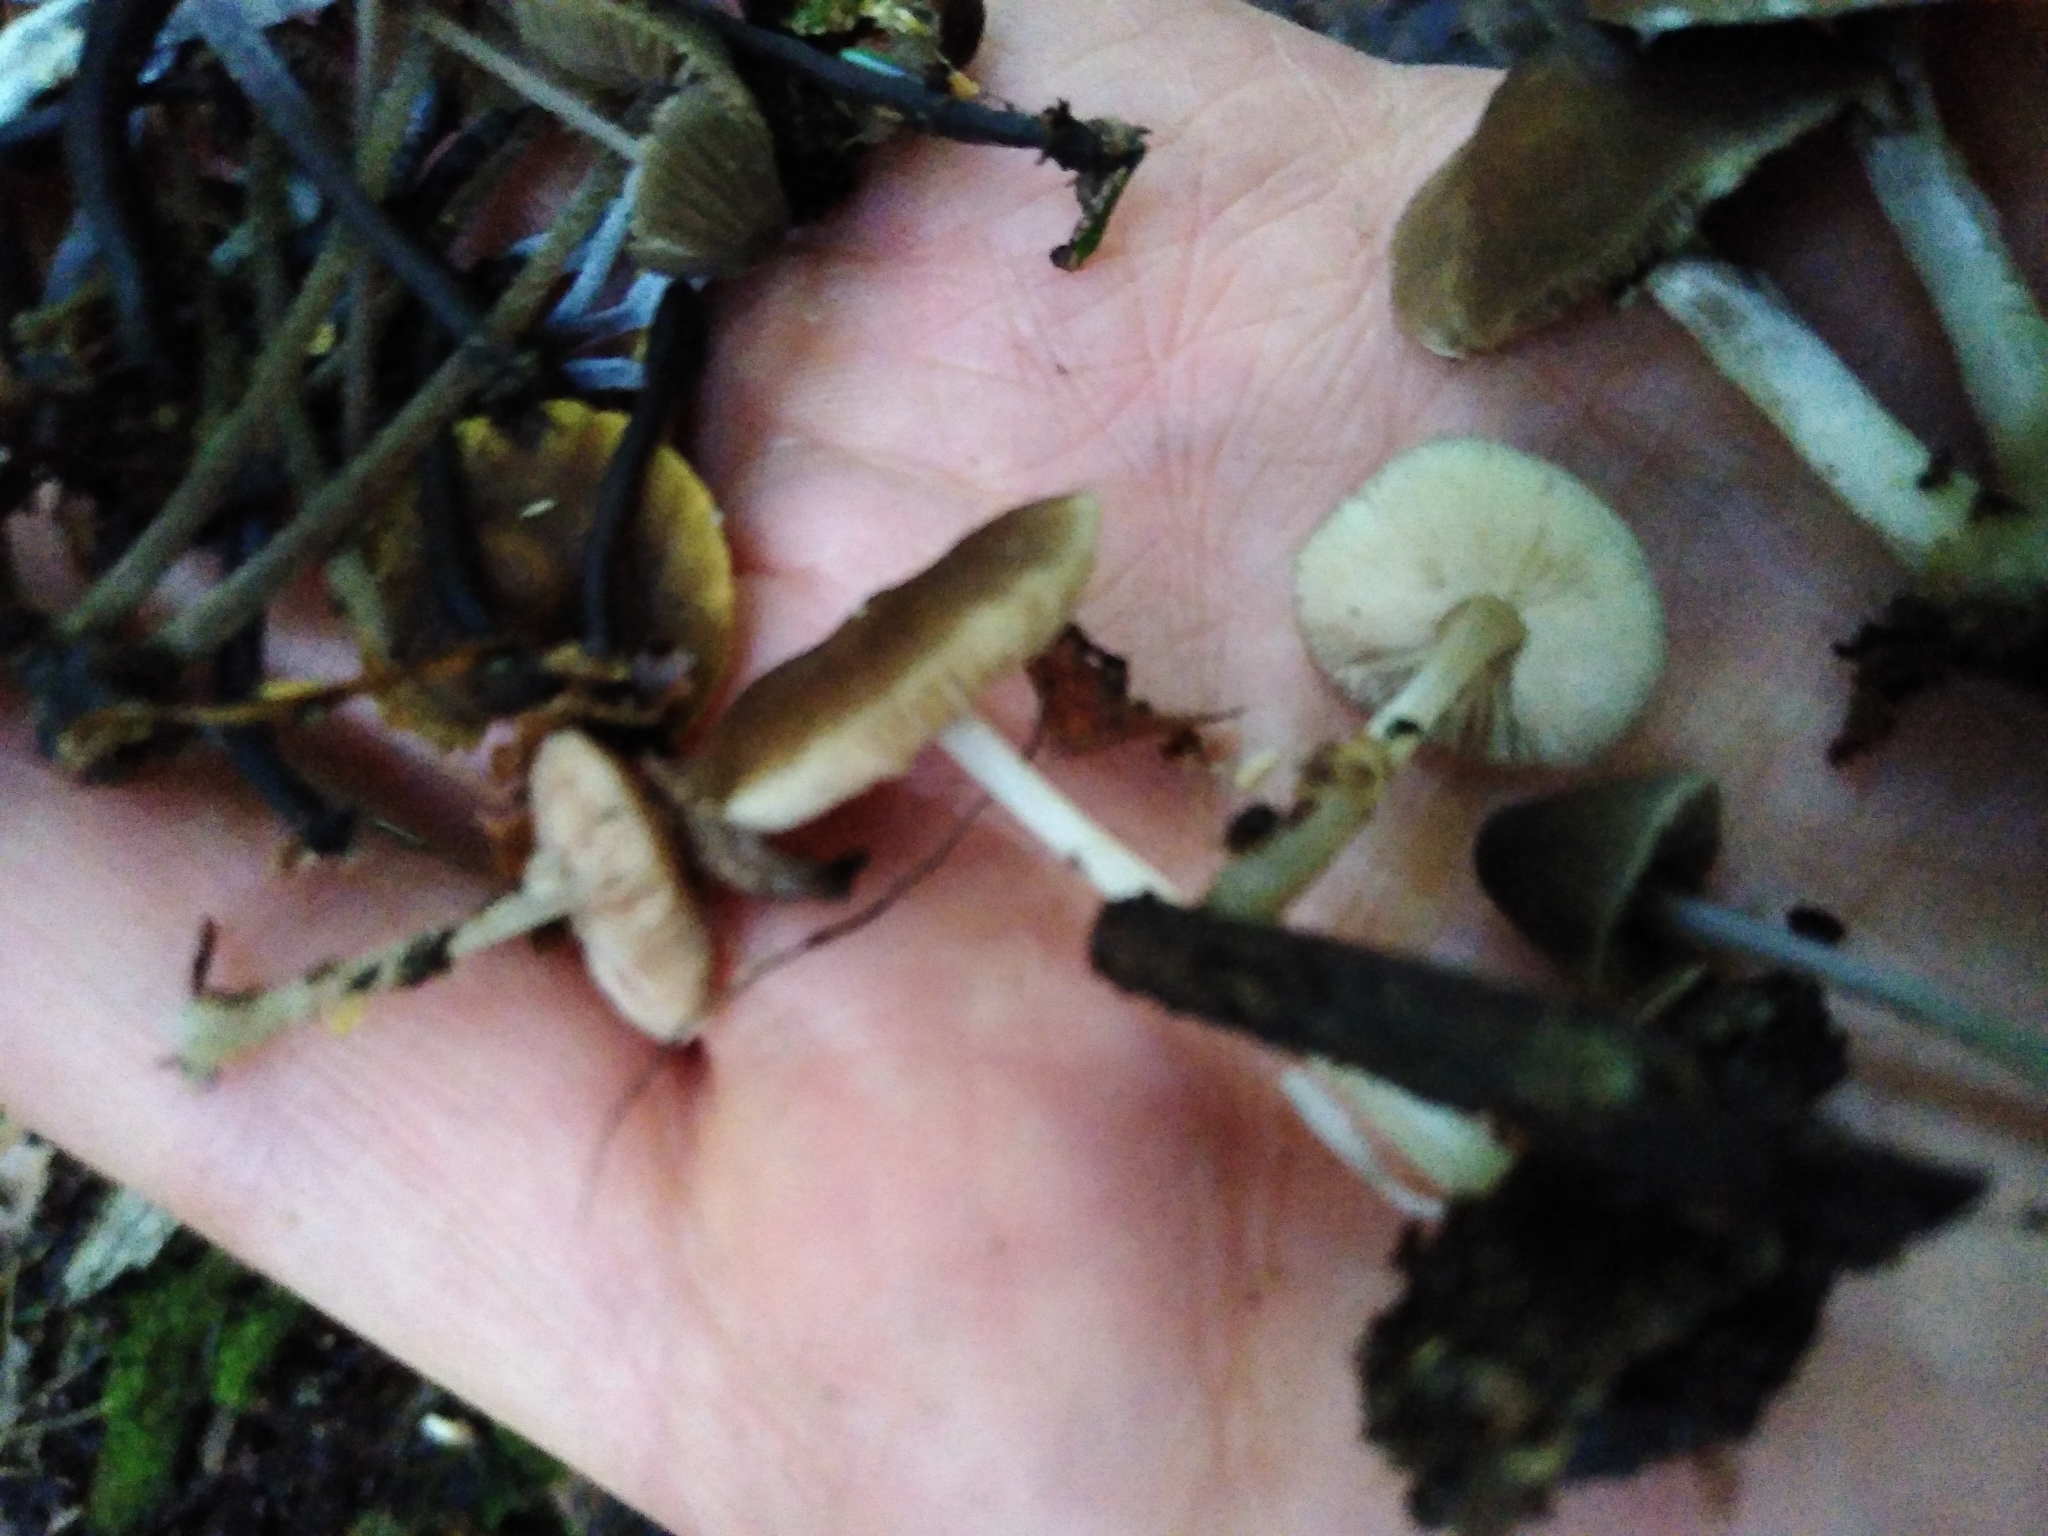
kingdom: Fungi
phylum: Basidiomycota
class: Agaricomycetes
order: Agaricales
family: Pluteaceae
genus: Pluteus
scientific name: Pluteus phlebophorus
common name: Wrinkled shield
